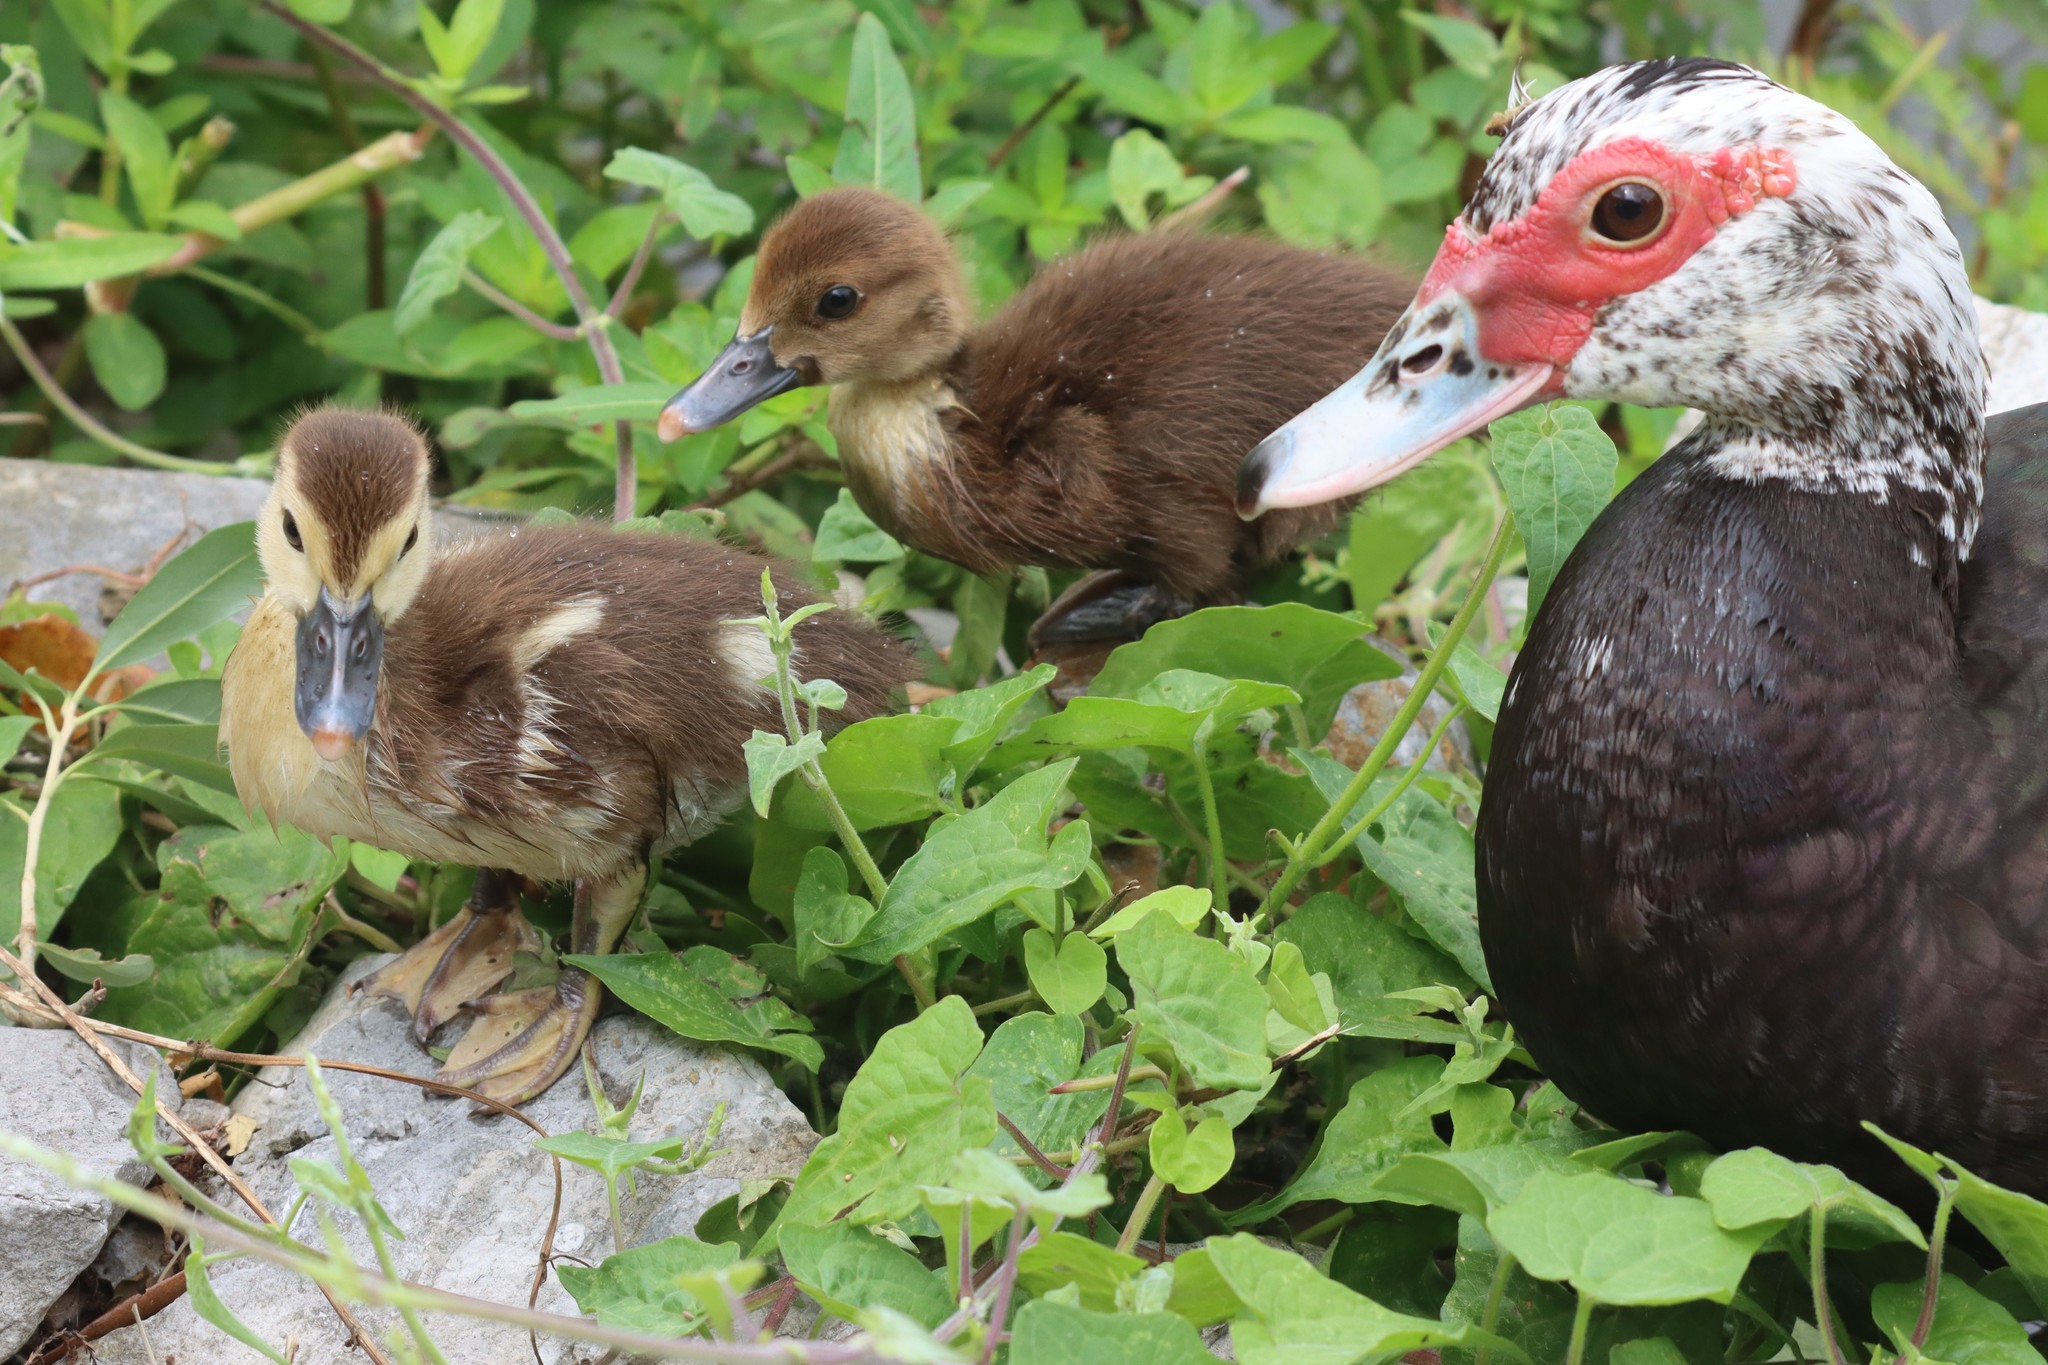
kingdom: Animalia
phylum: Chordata
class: Aves
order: Anseriformes
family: Anatidae
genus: Cairina
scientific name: Cairina moschata
